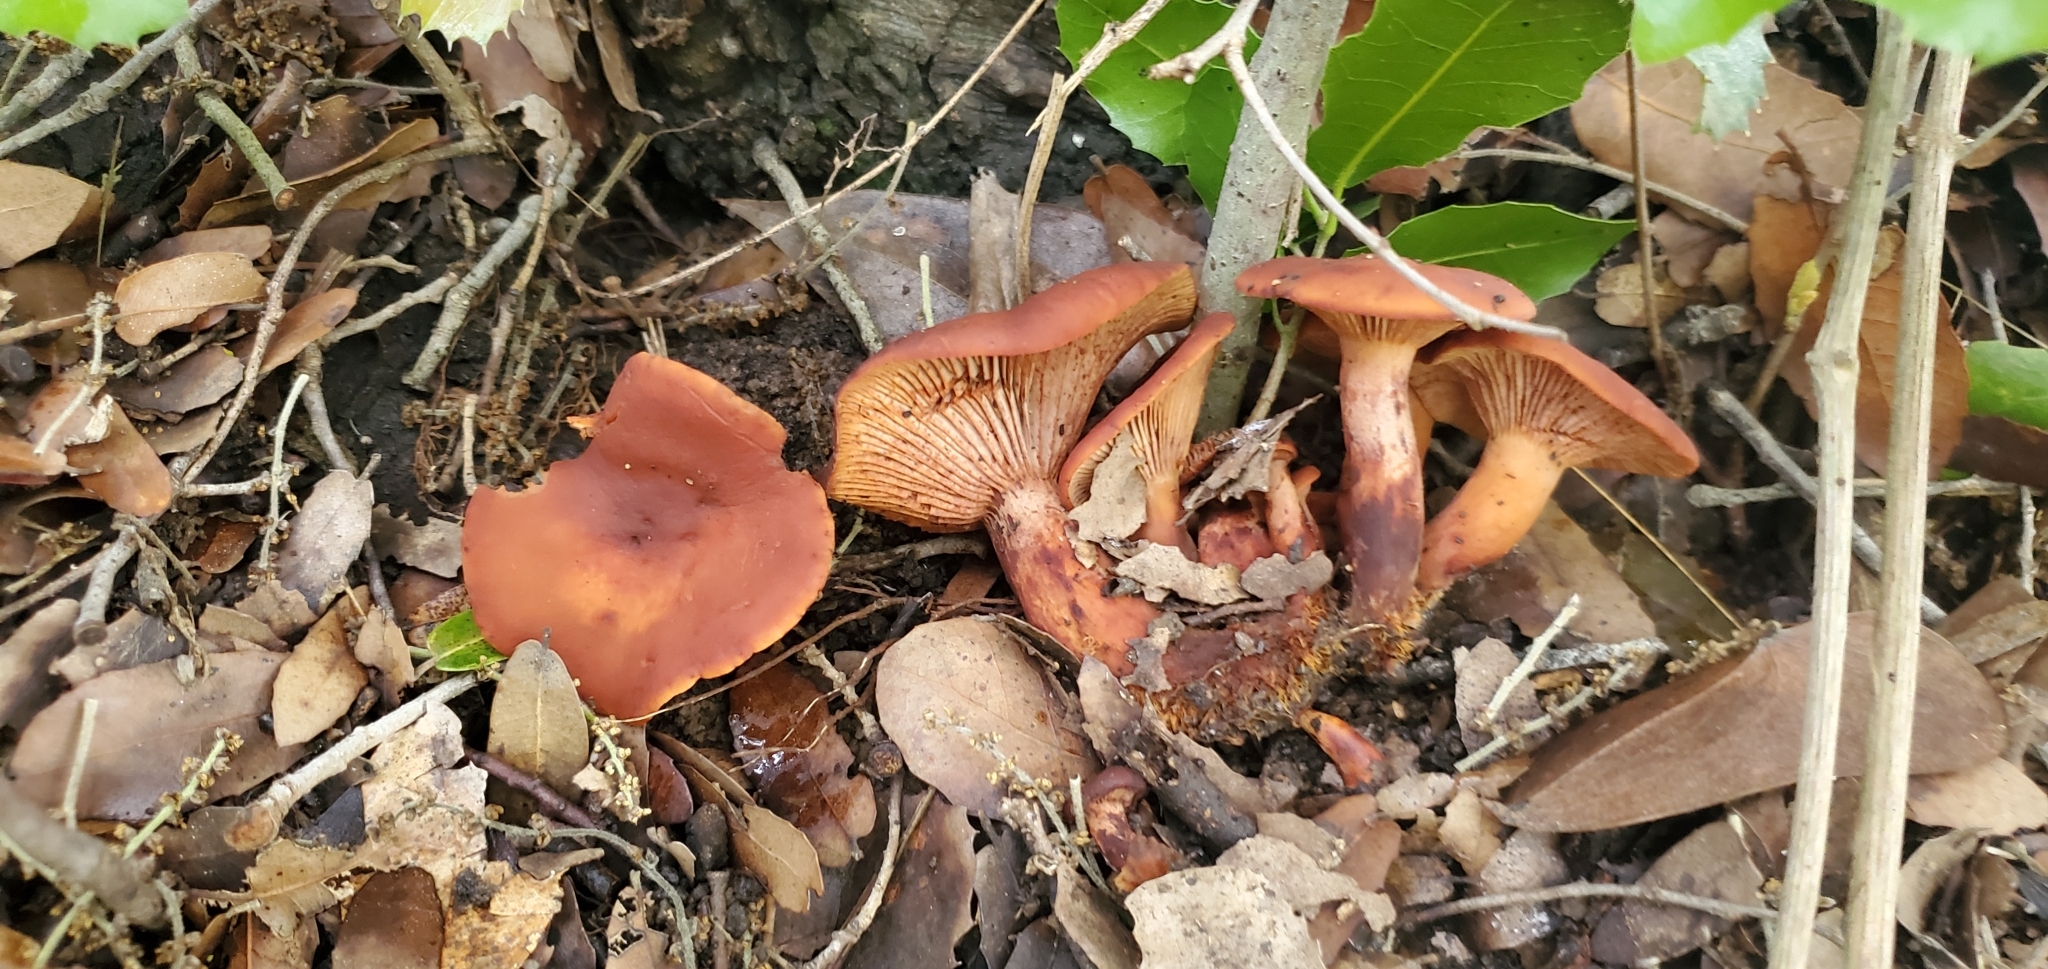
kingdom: Fungi
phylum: Basidiomycota
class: Agaricomycetes
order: Russulales
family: Russulaceae
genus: Lactarius
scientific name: Lactarius atlanticus
